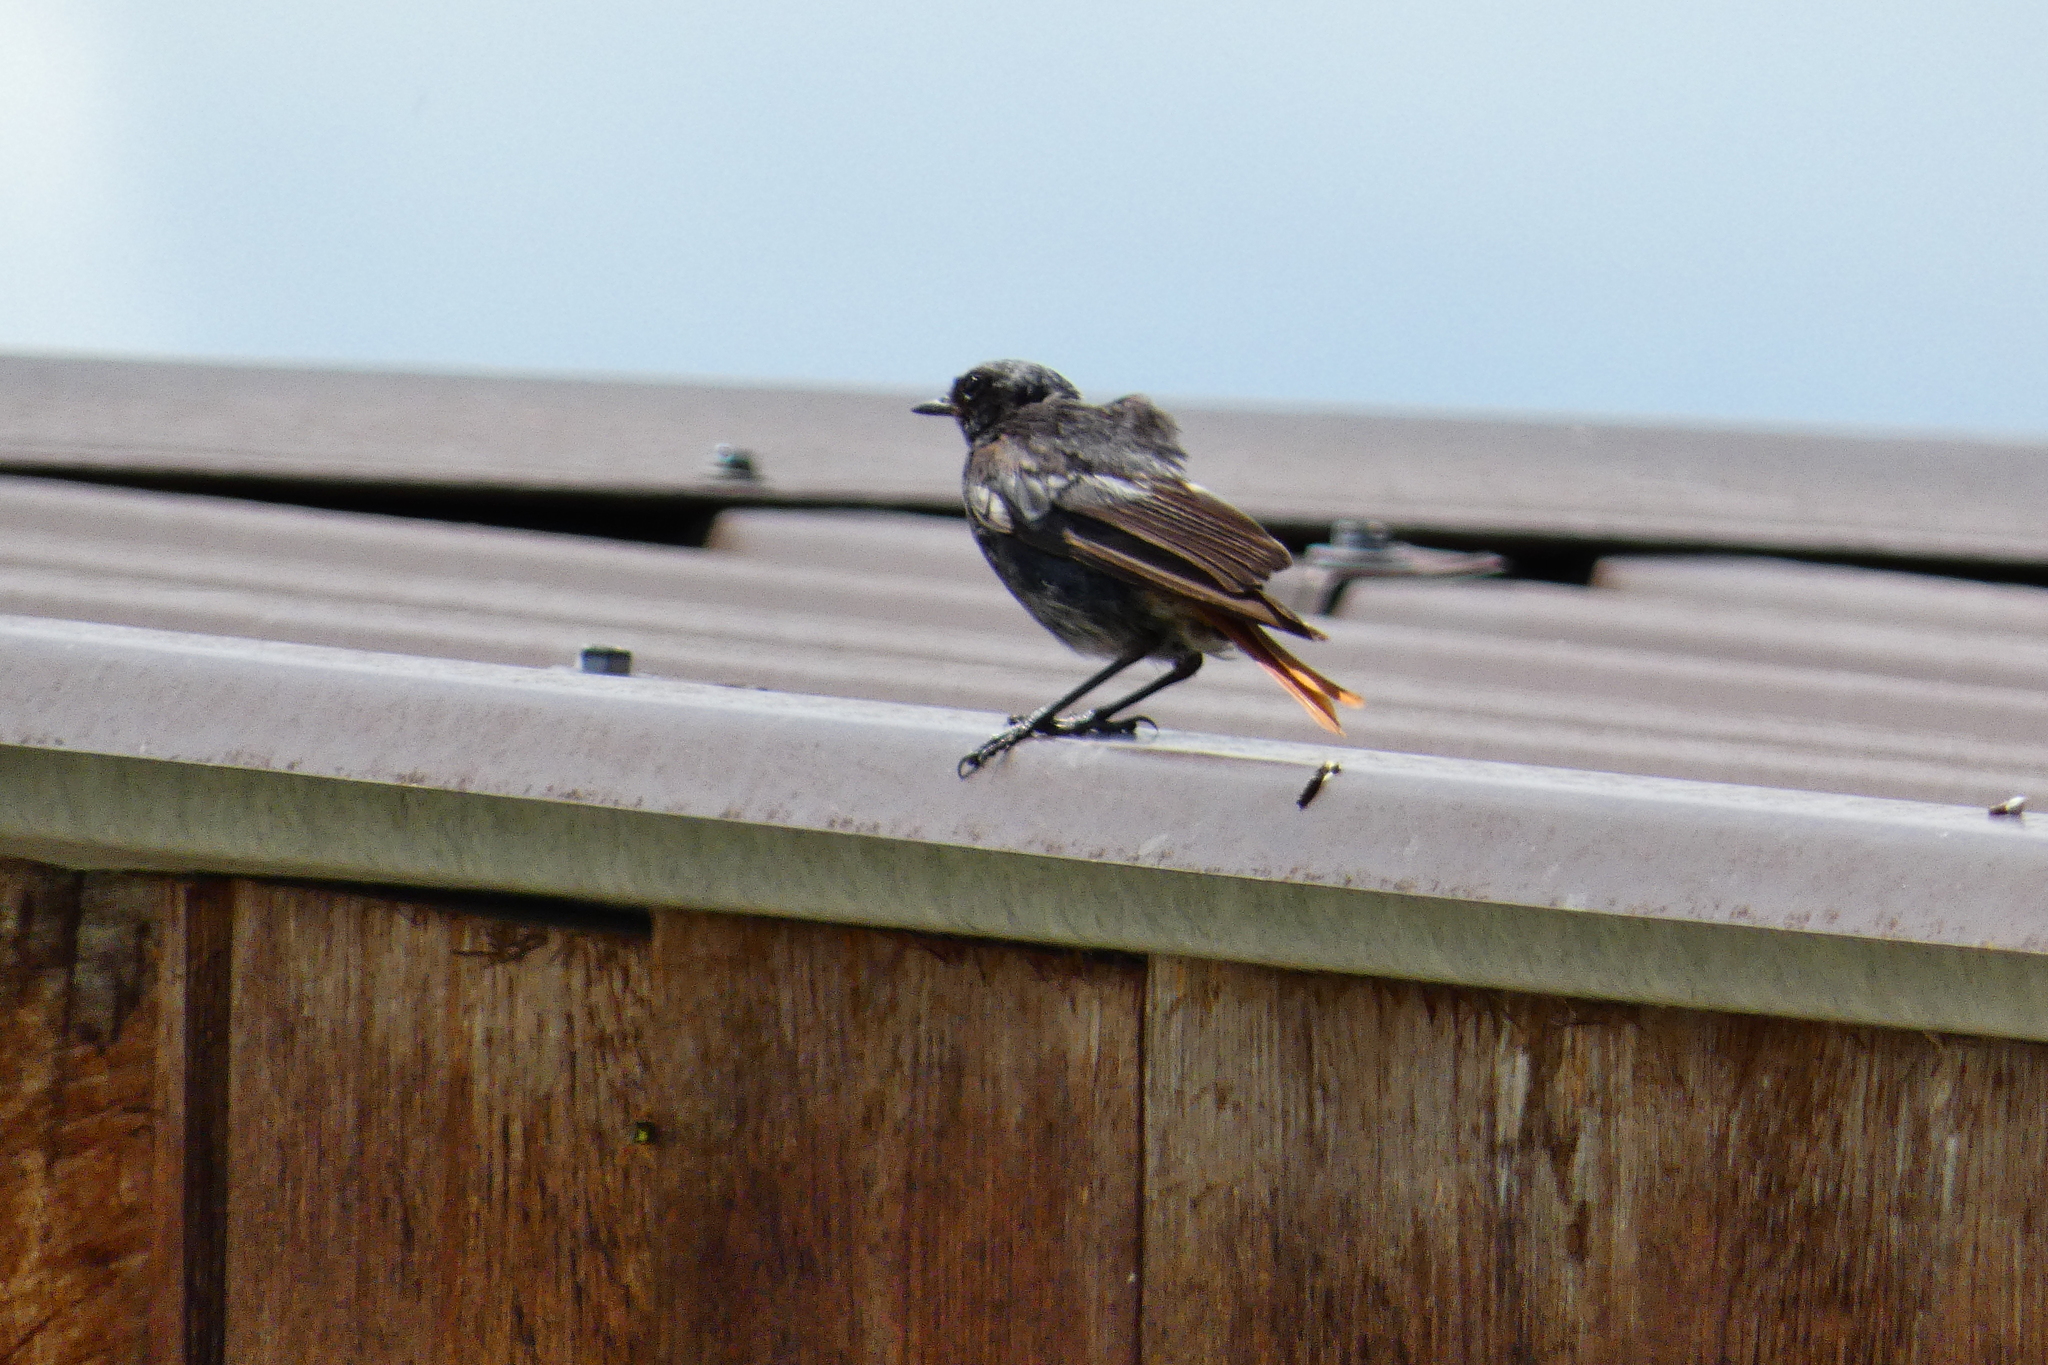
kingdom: Animalia
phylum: Chordata
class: Aves
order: Passeriformes
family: Muscicapidae
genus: Phoenicurus
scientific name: Phoenicurus ochruros
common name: Black redstart
